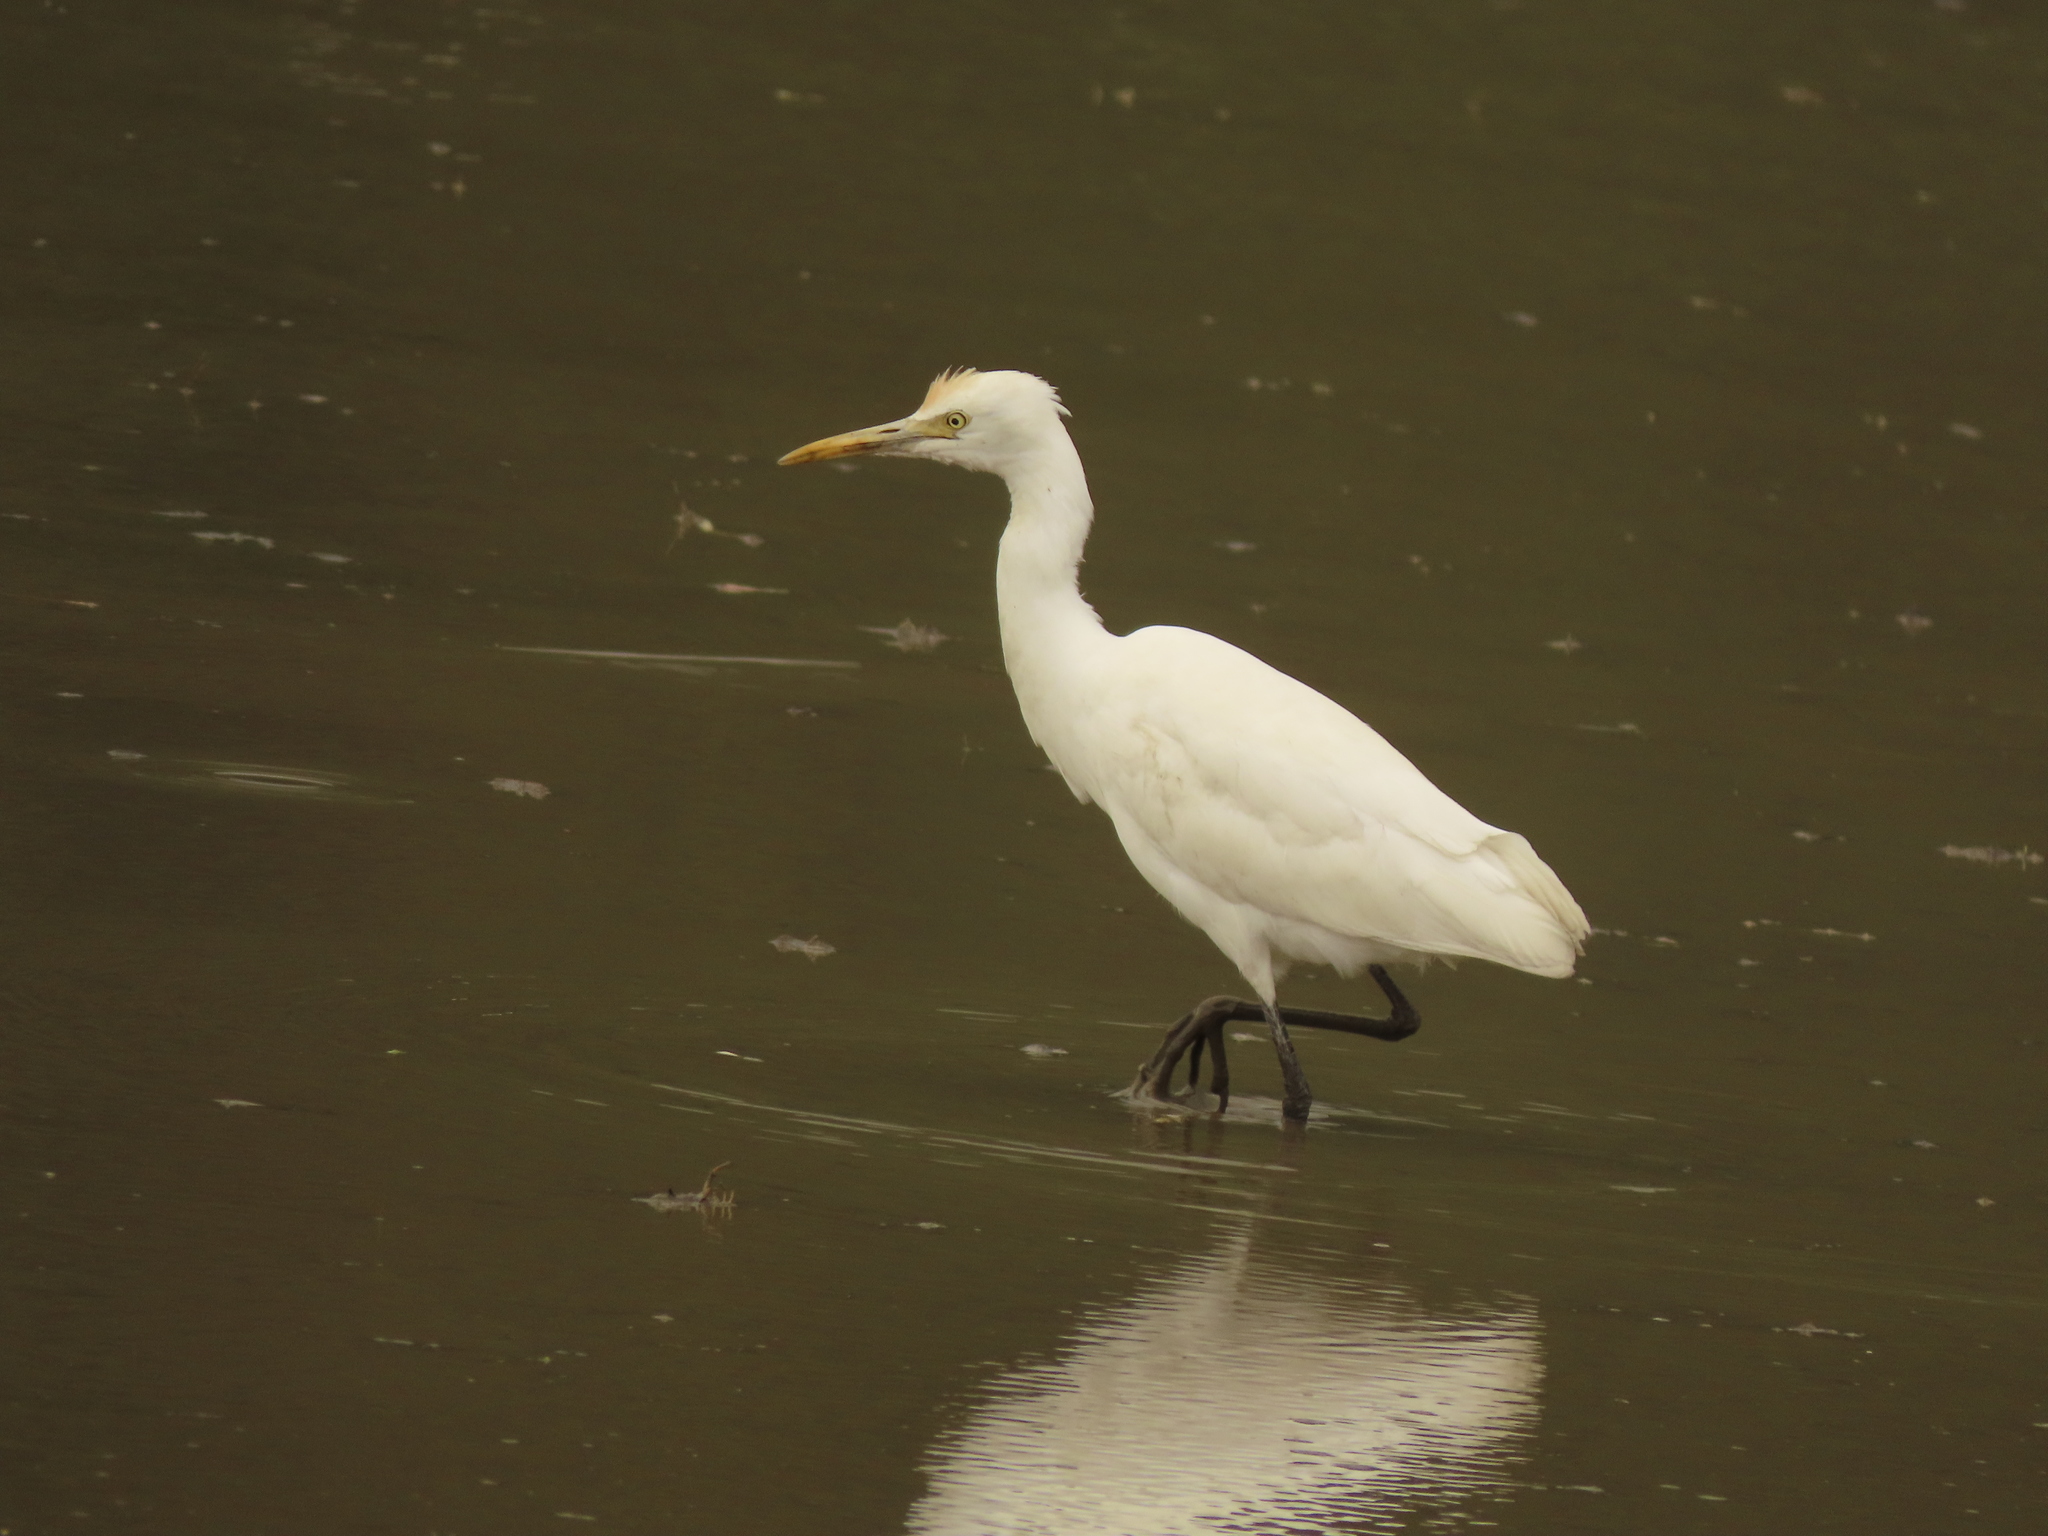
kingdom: Animalia
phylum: Chordata
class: Aves
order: Pelecaniformes
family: Ardeidae
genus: Bubulcus
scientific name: Bubulcus coromandus
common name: Eastern cattle egret
